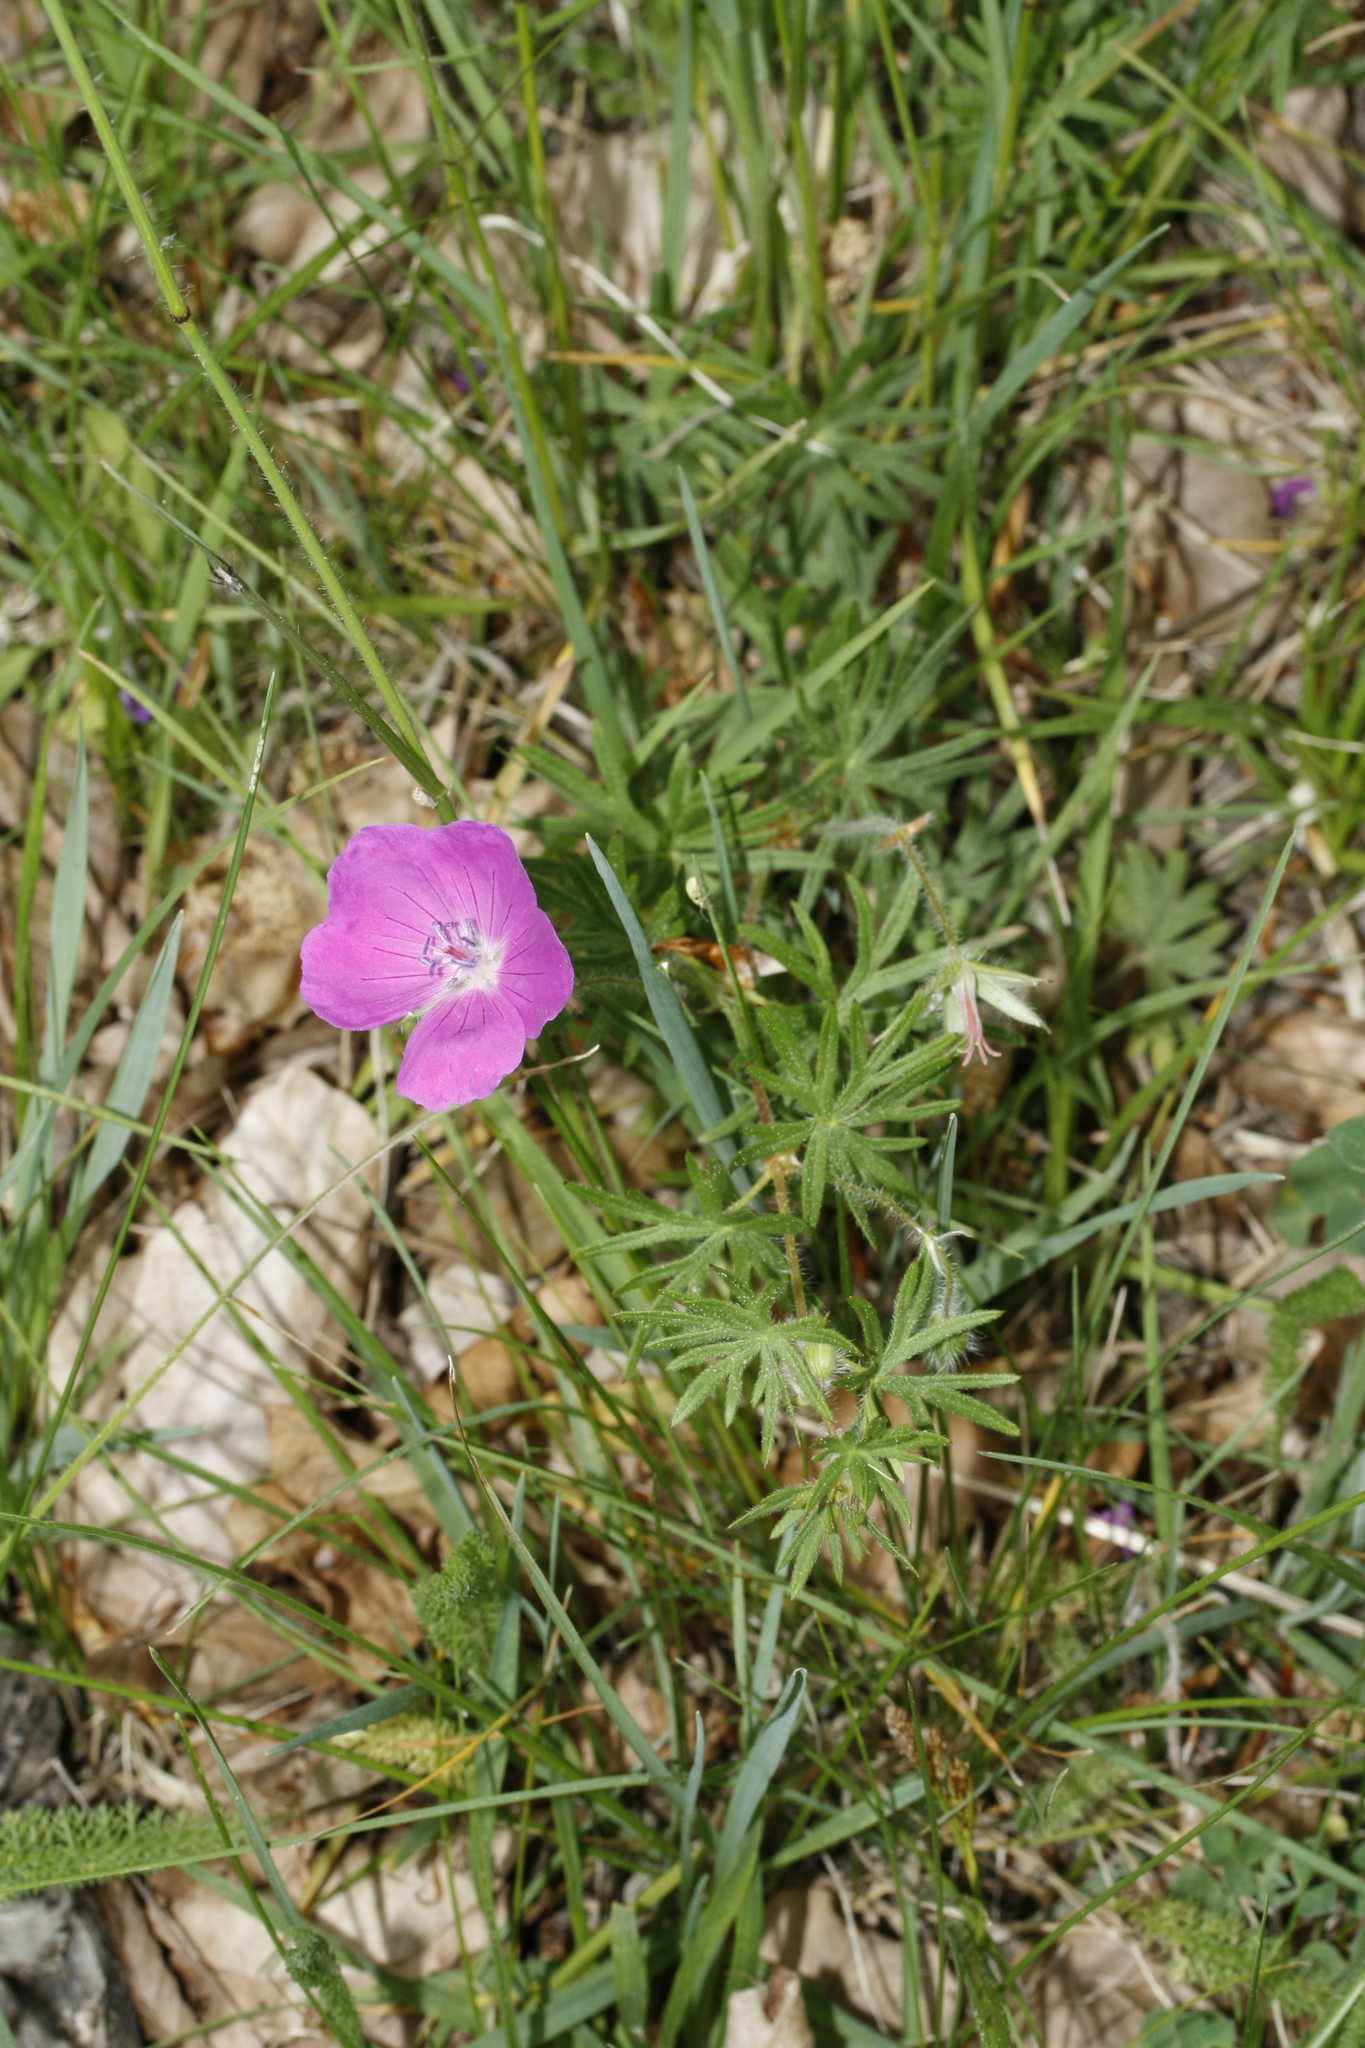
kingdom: Plantae
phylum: Tracheophyta
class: Magnoliopsida
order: Geraniales
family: Geraniaceae
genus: Geranium
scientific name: Geranium sanguineum
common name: Bloody crane's-bill
